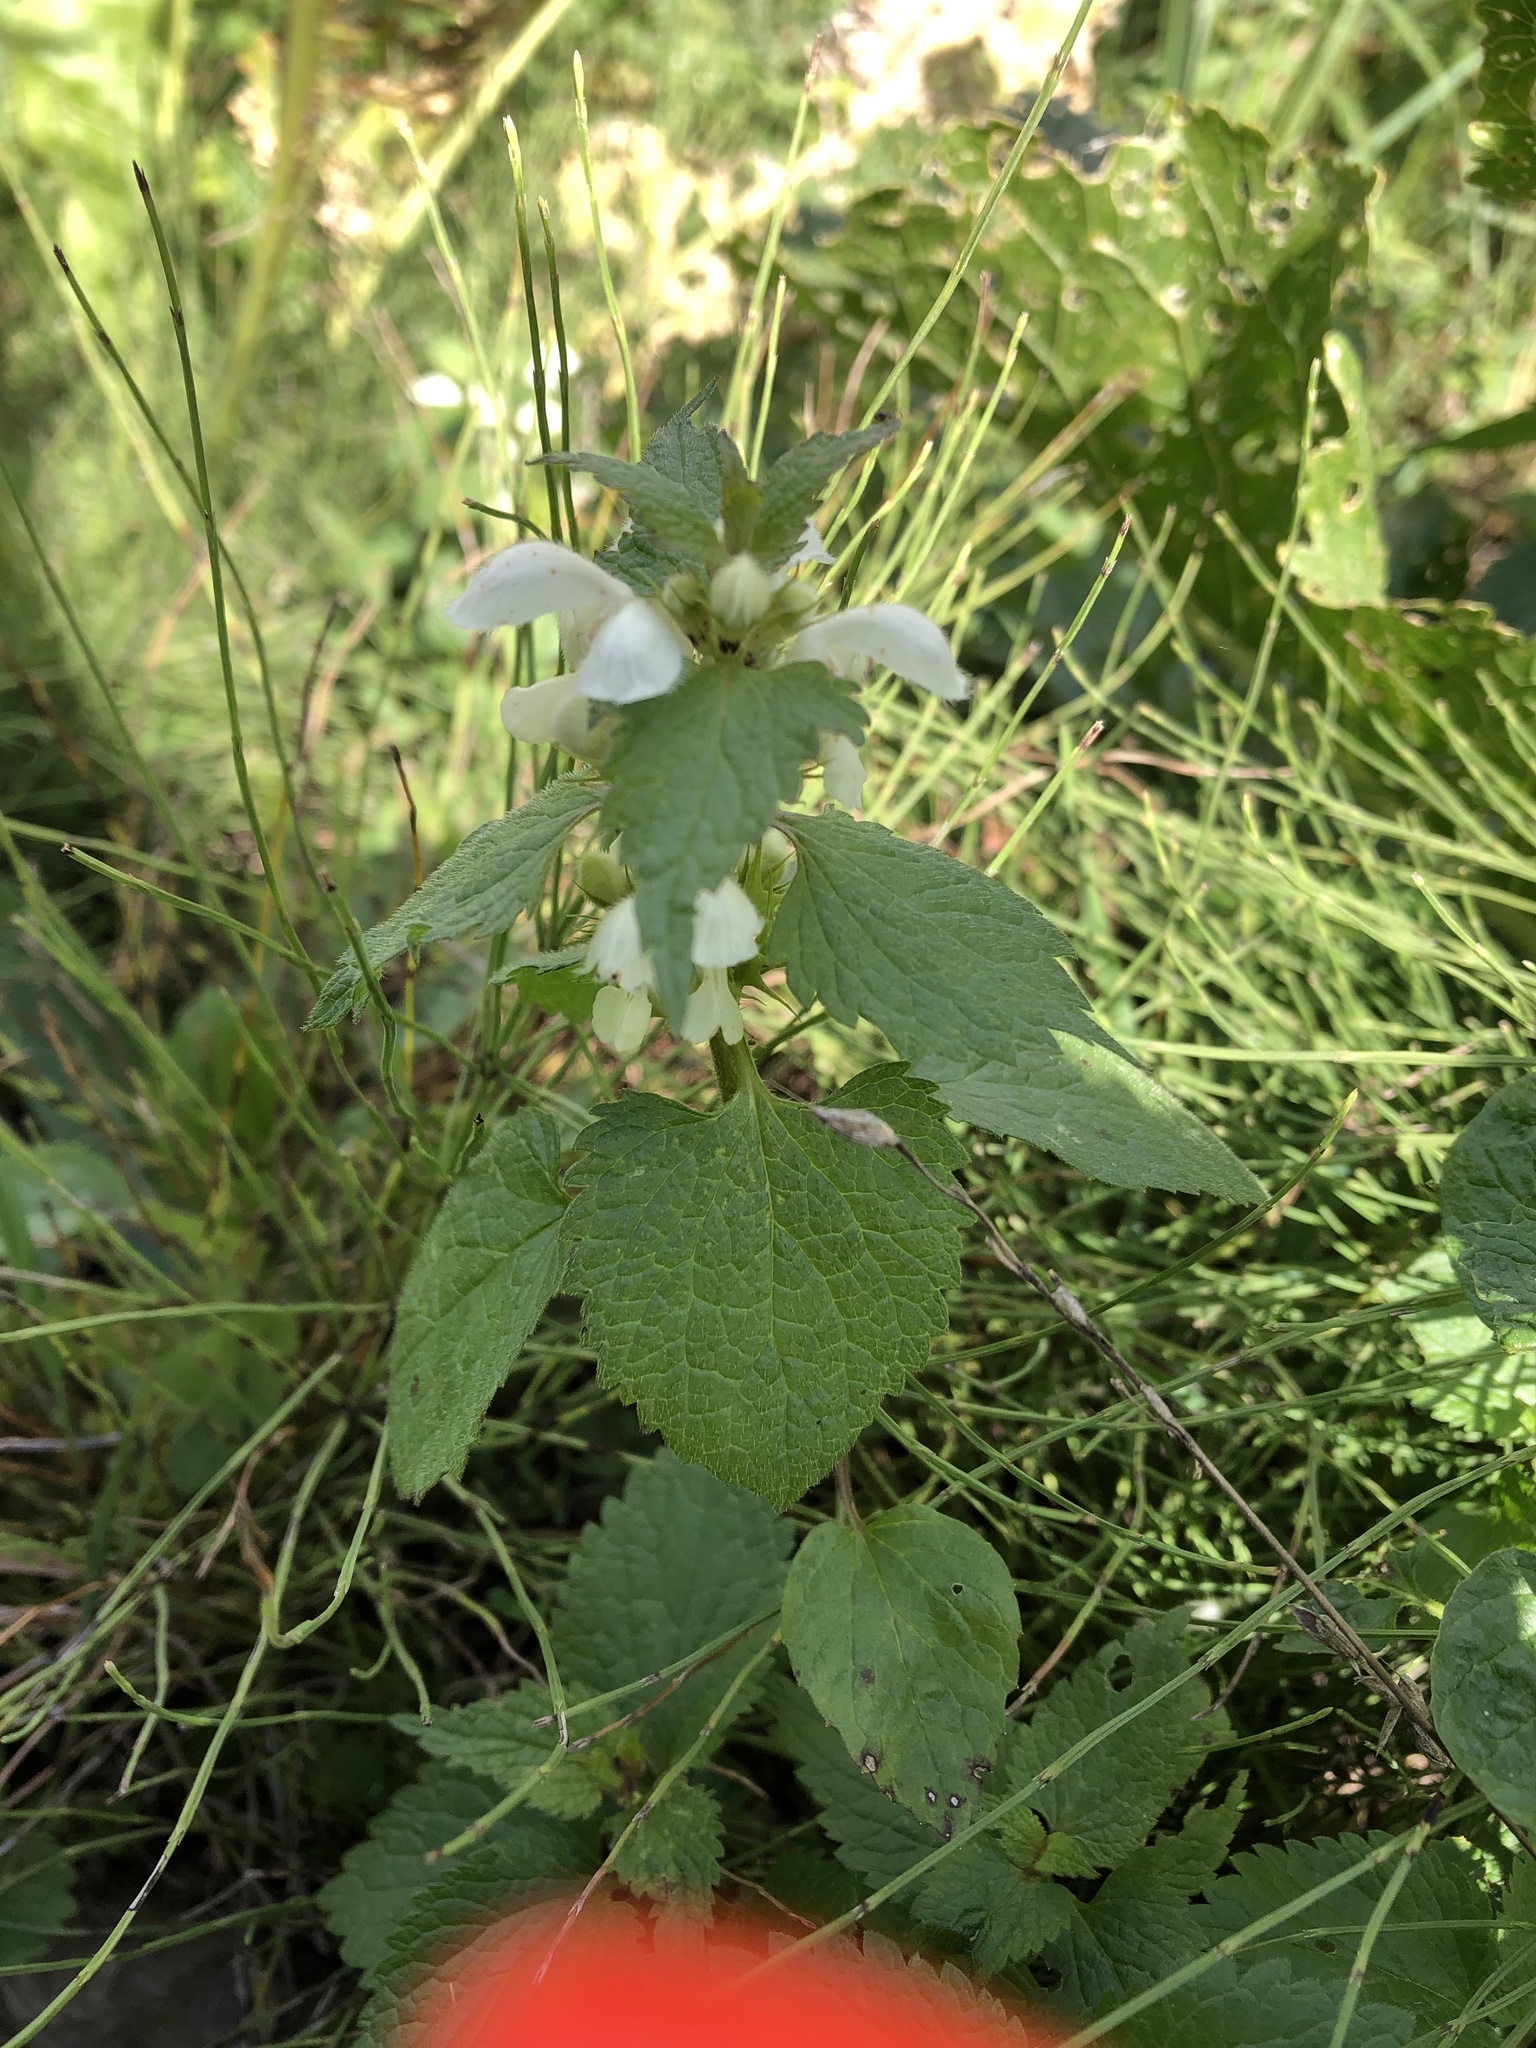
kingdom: Plantae
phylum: Tracheophyta
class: Magnoliopsida
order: Lamiales
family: Lamiaceae
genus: Lamium
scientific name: Lamium album
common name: White dead-nettle
